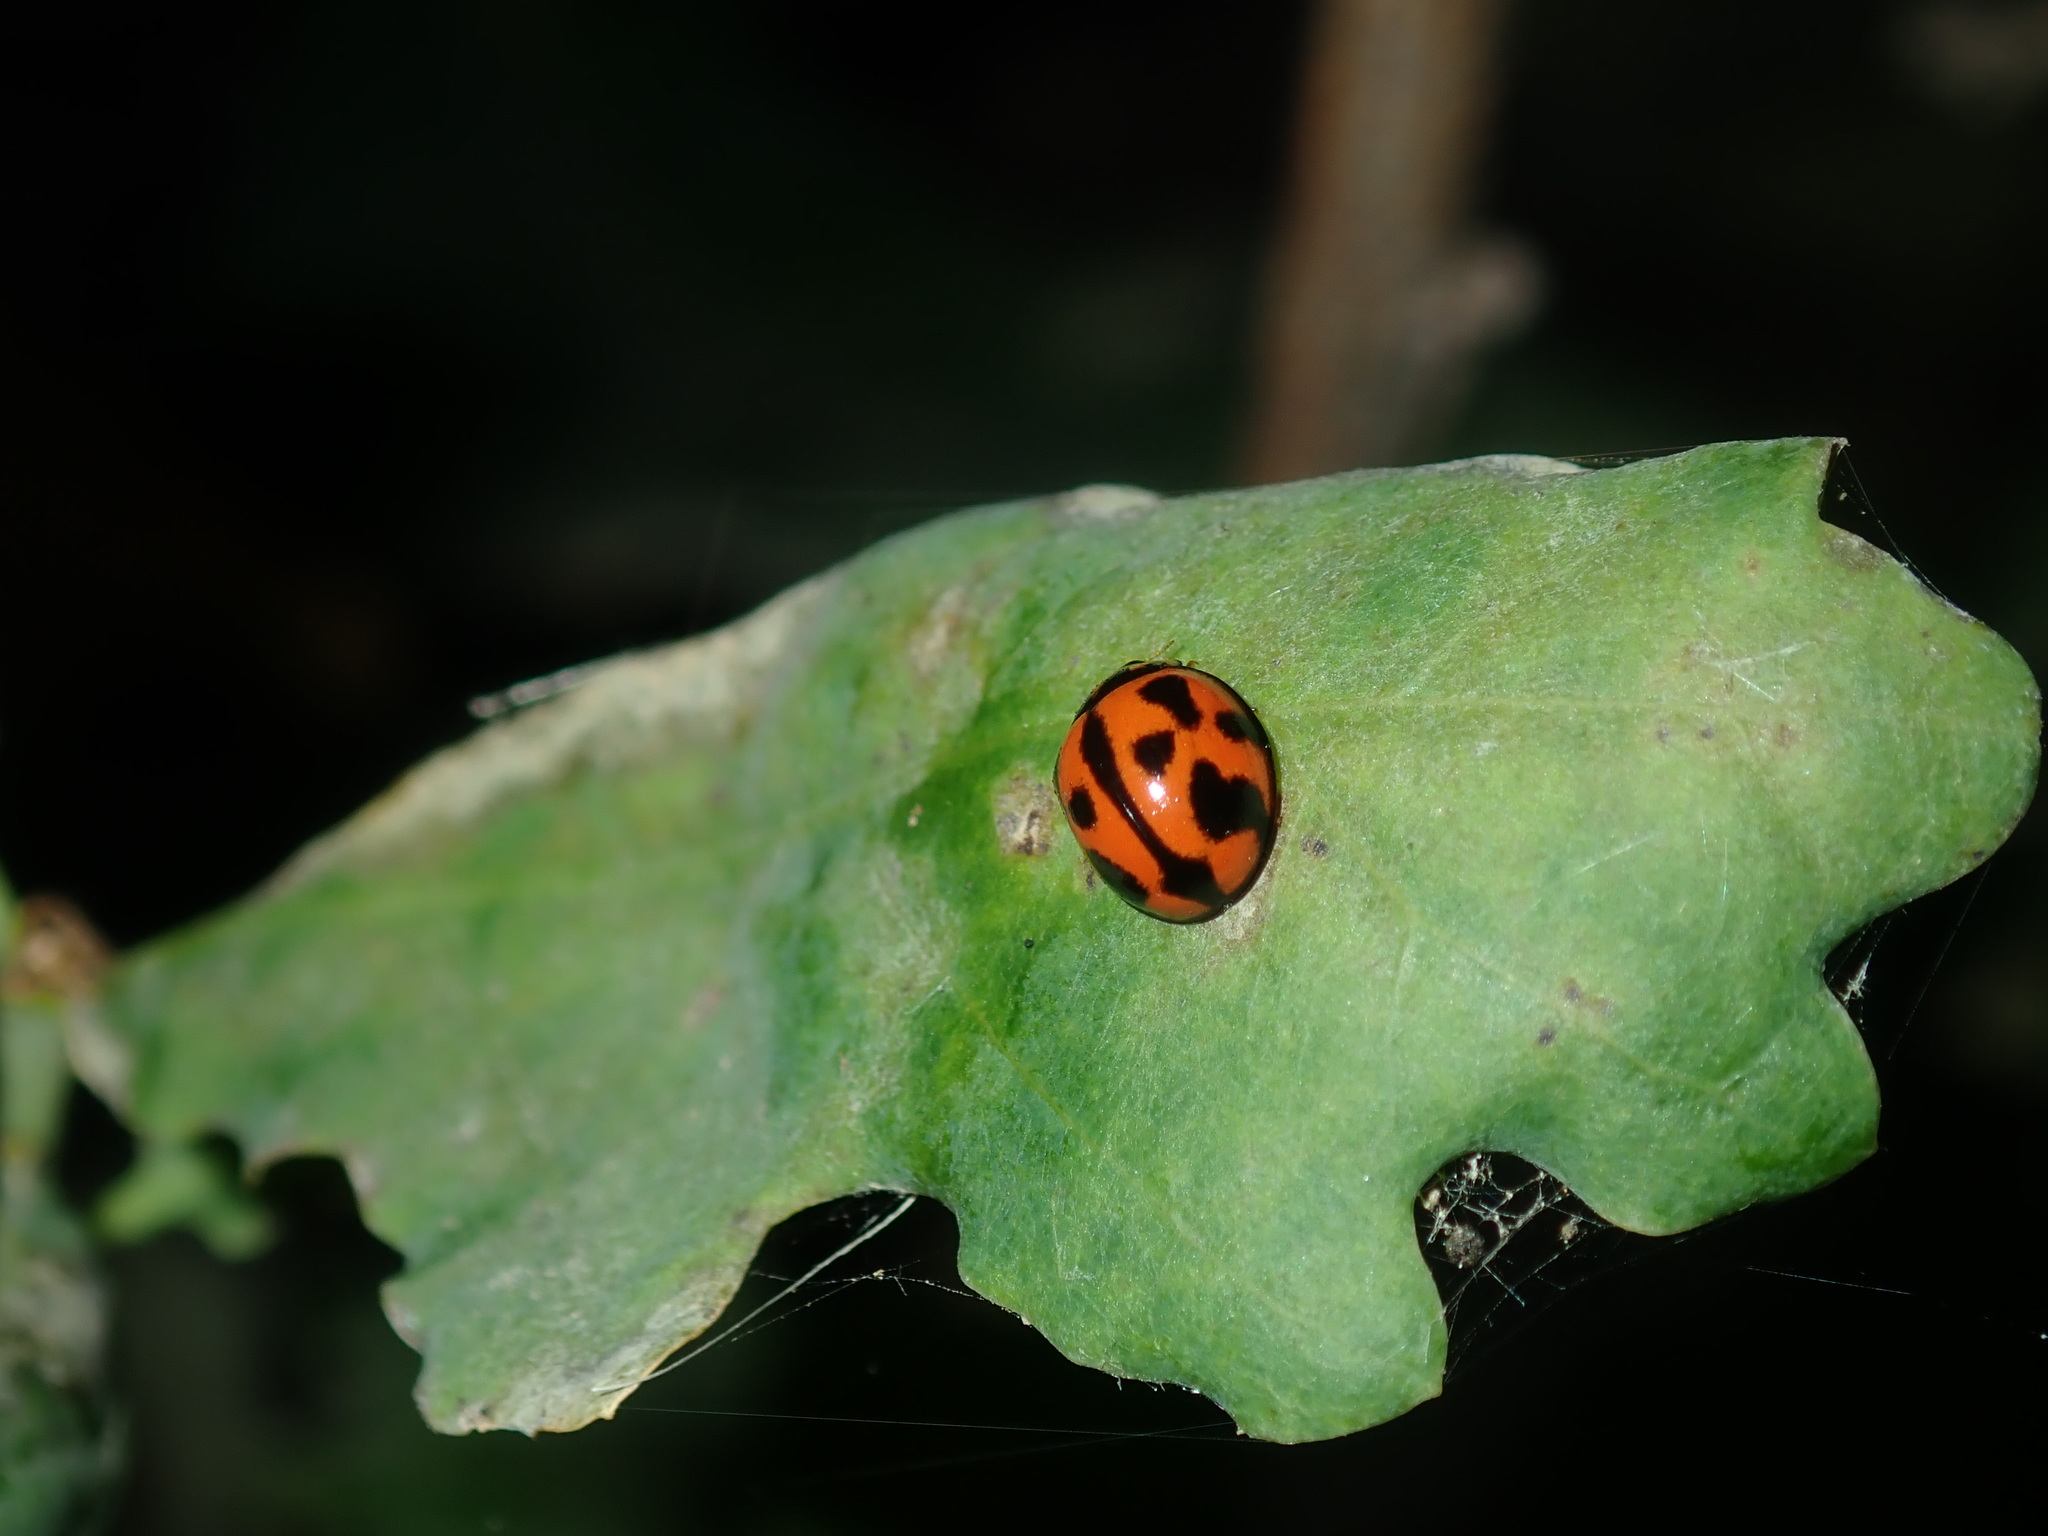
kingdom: Animalia
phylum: Arthropoda
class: Insecta
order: Coleoptera
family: Coccinellidae
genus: Coelophora
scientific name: Coelophora inaequalis
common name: Common australian lady beetle
